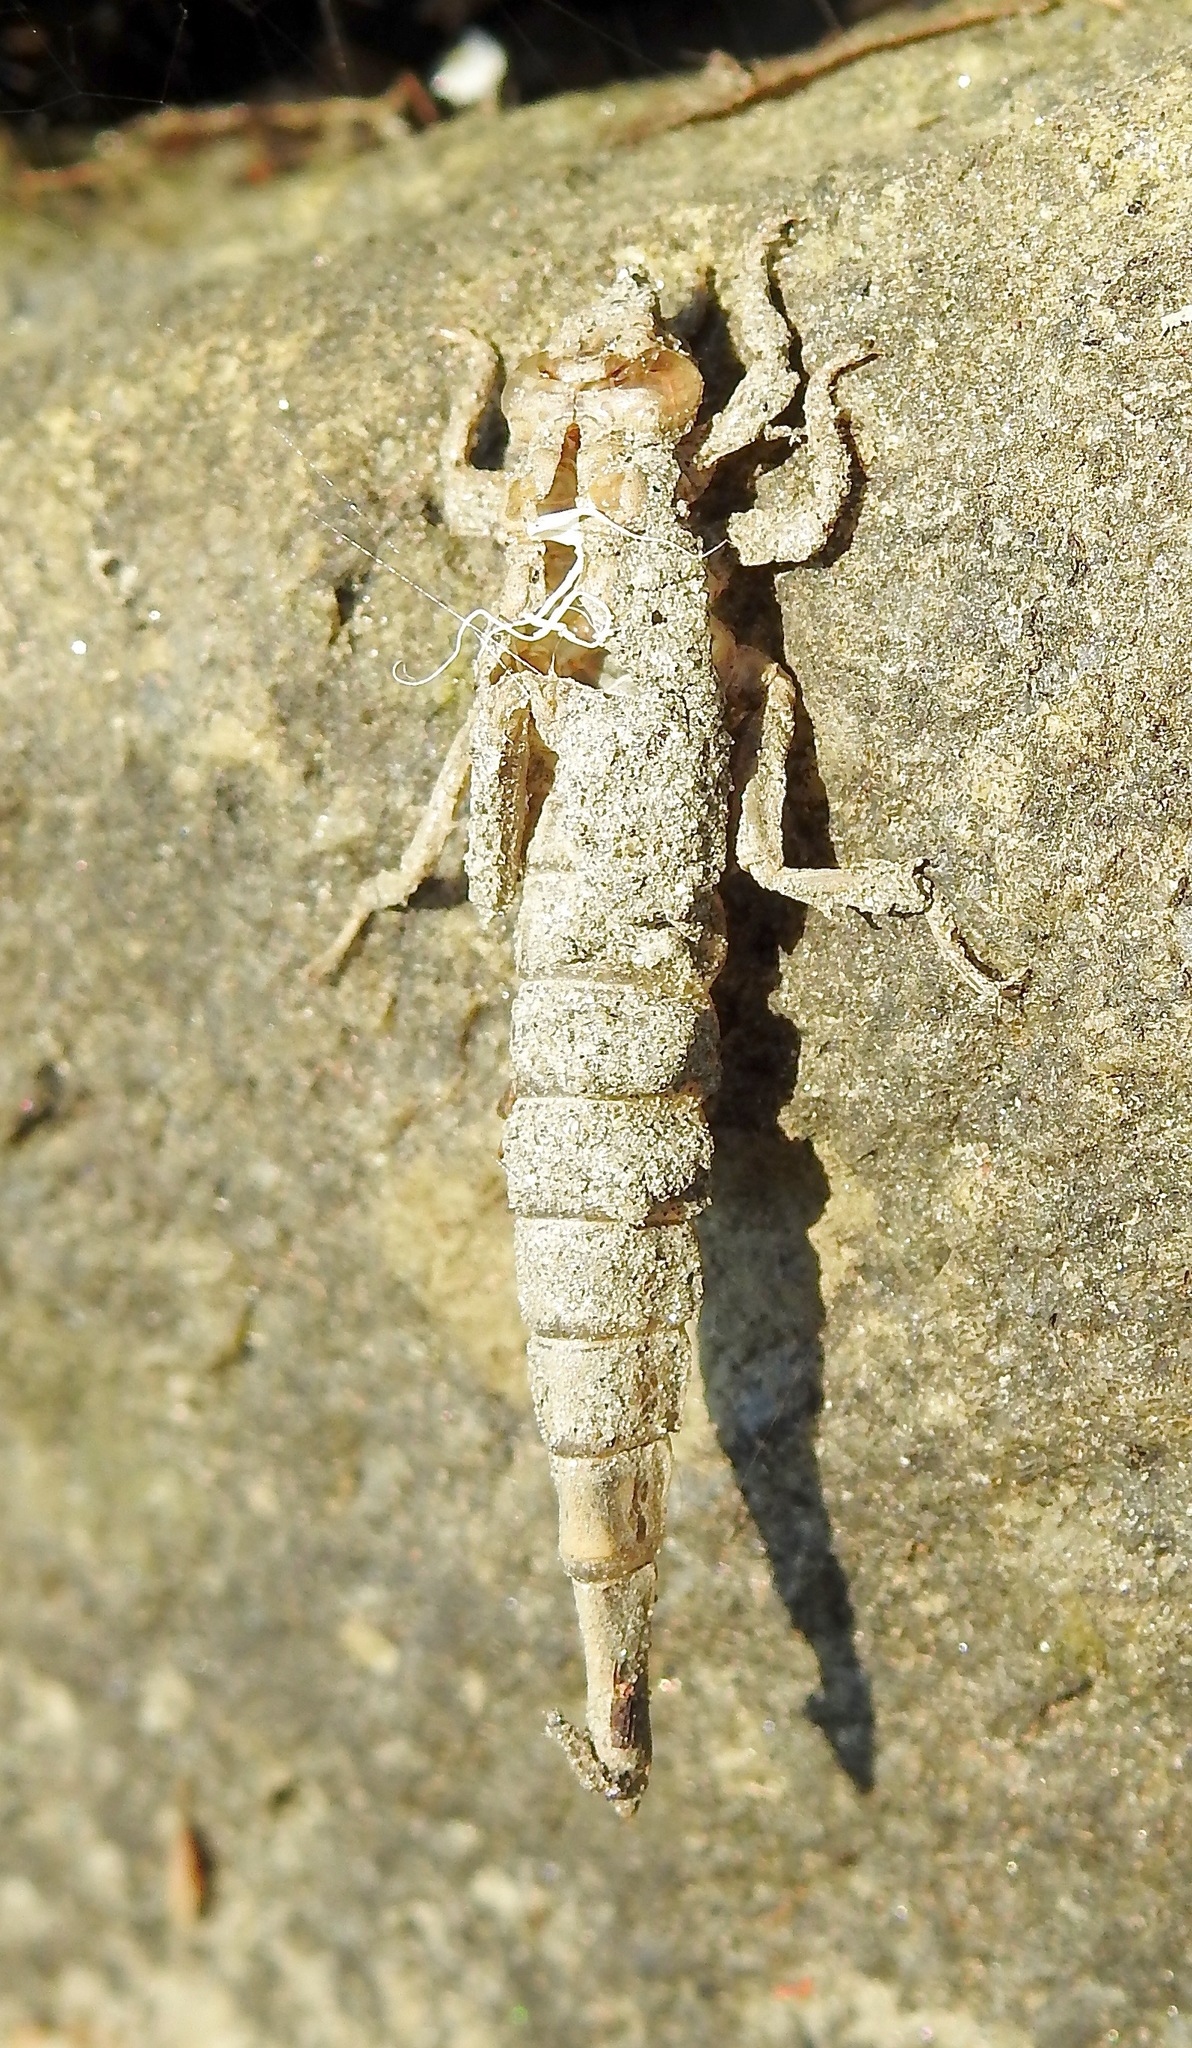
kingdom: Animalia
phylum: Arthropoda
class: Insecta
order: Odonata
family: Gomphidae
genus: Stylurus
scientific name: Stylurus spiniceps
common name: Arrow clubtail
